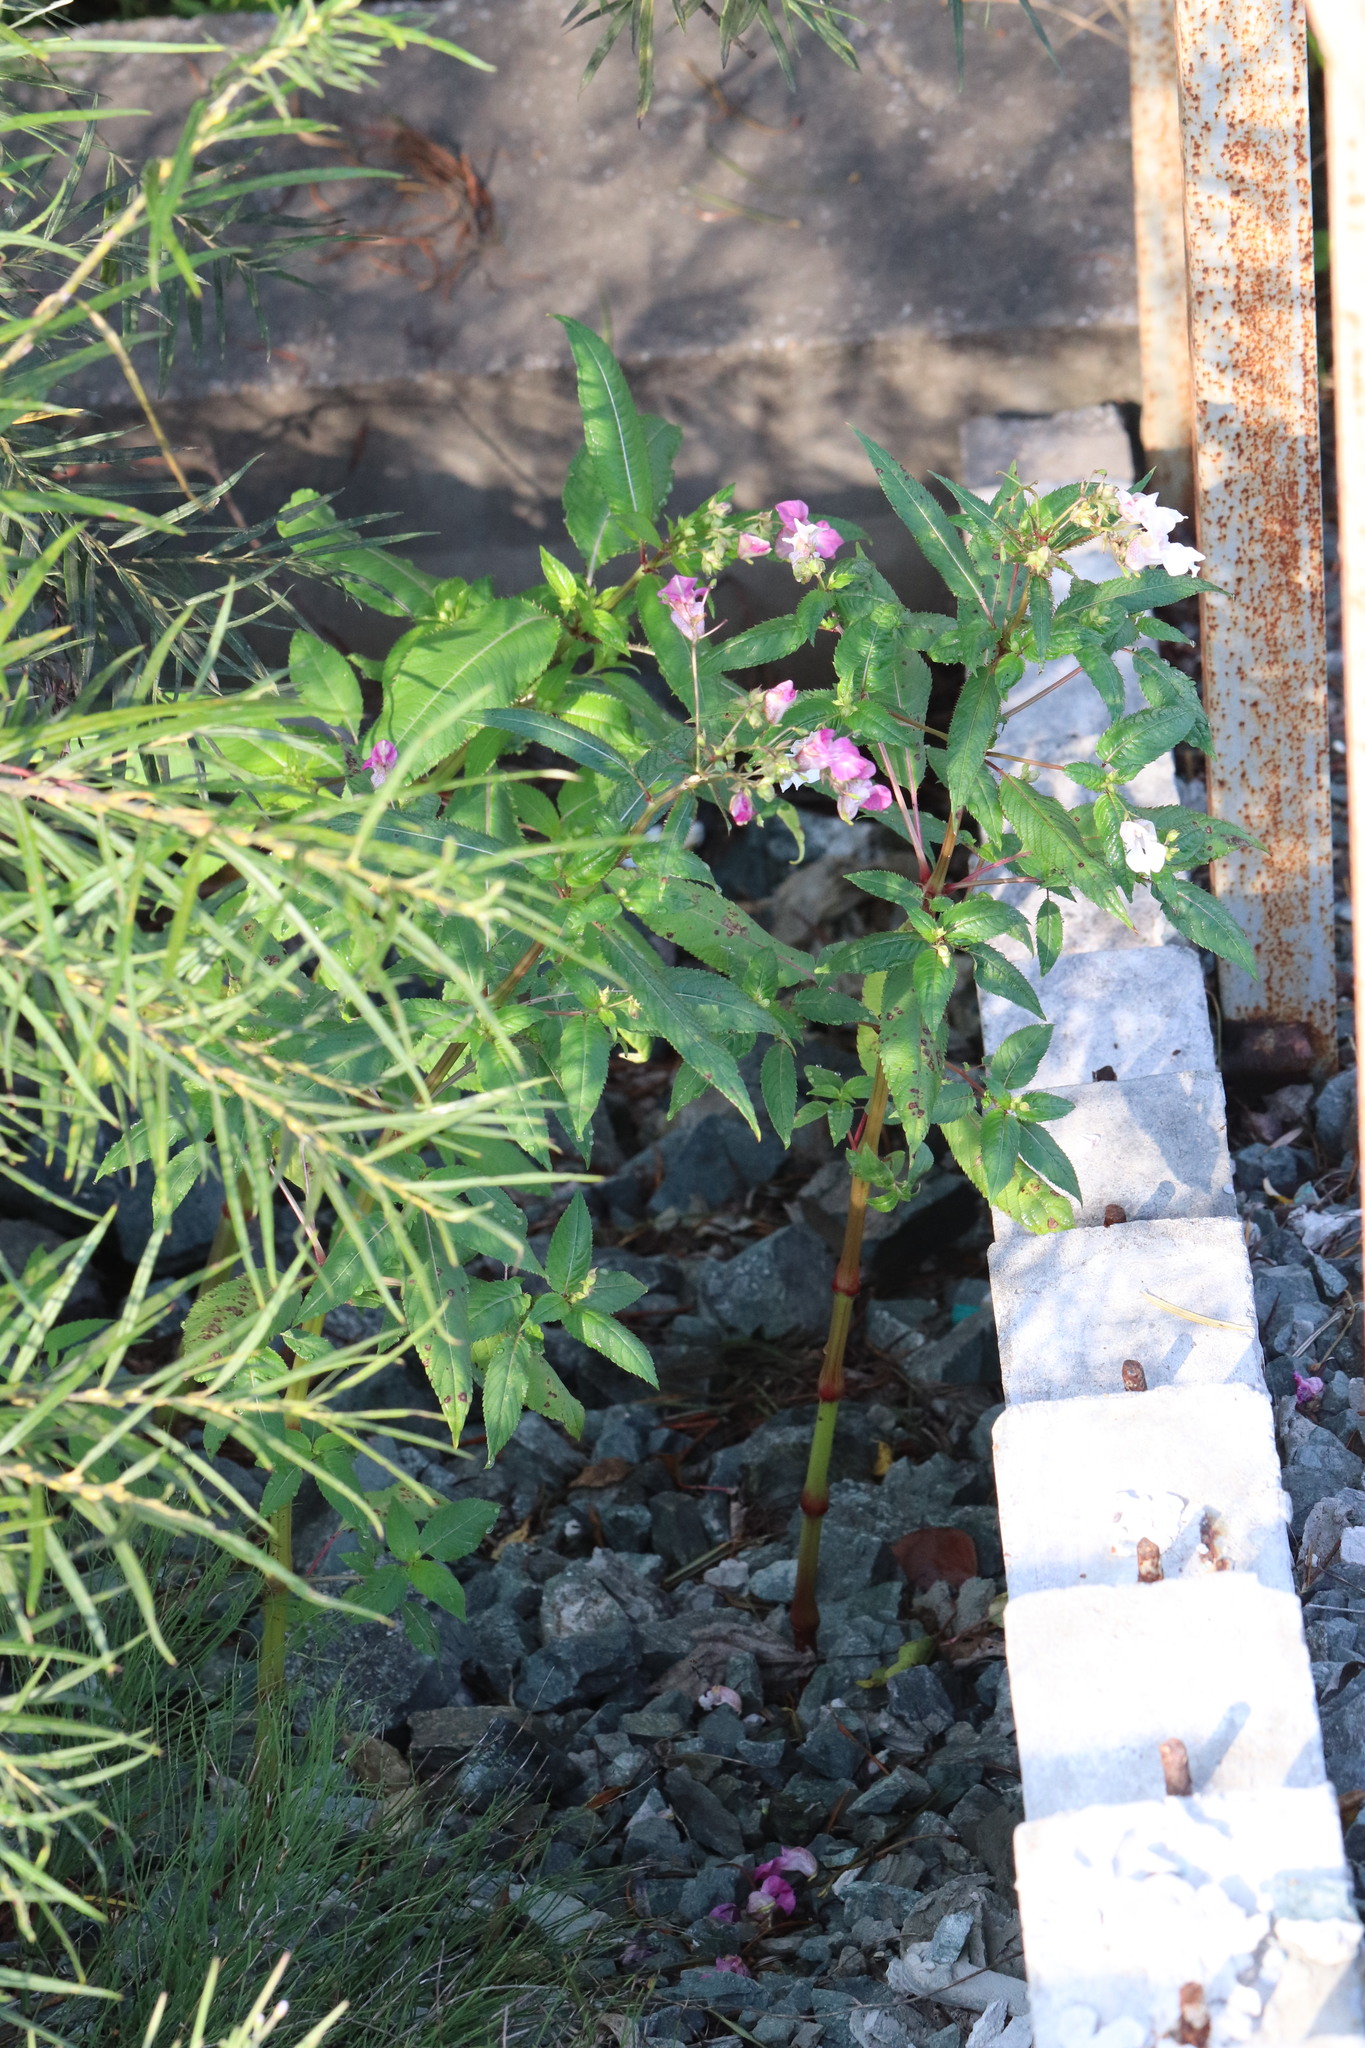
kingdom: Plantae
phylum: Tracheophyta
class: Magnoliopsida
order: Ericales
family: Balsaminaceae
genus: Impatiens
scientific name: Impatiens glandulifera
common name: Himalayan balsam
